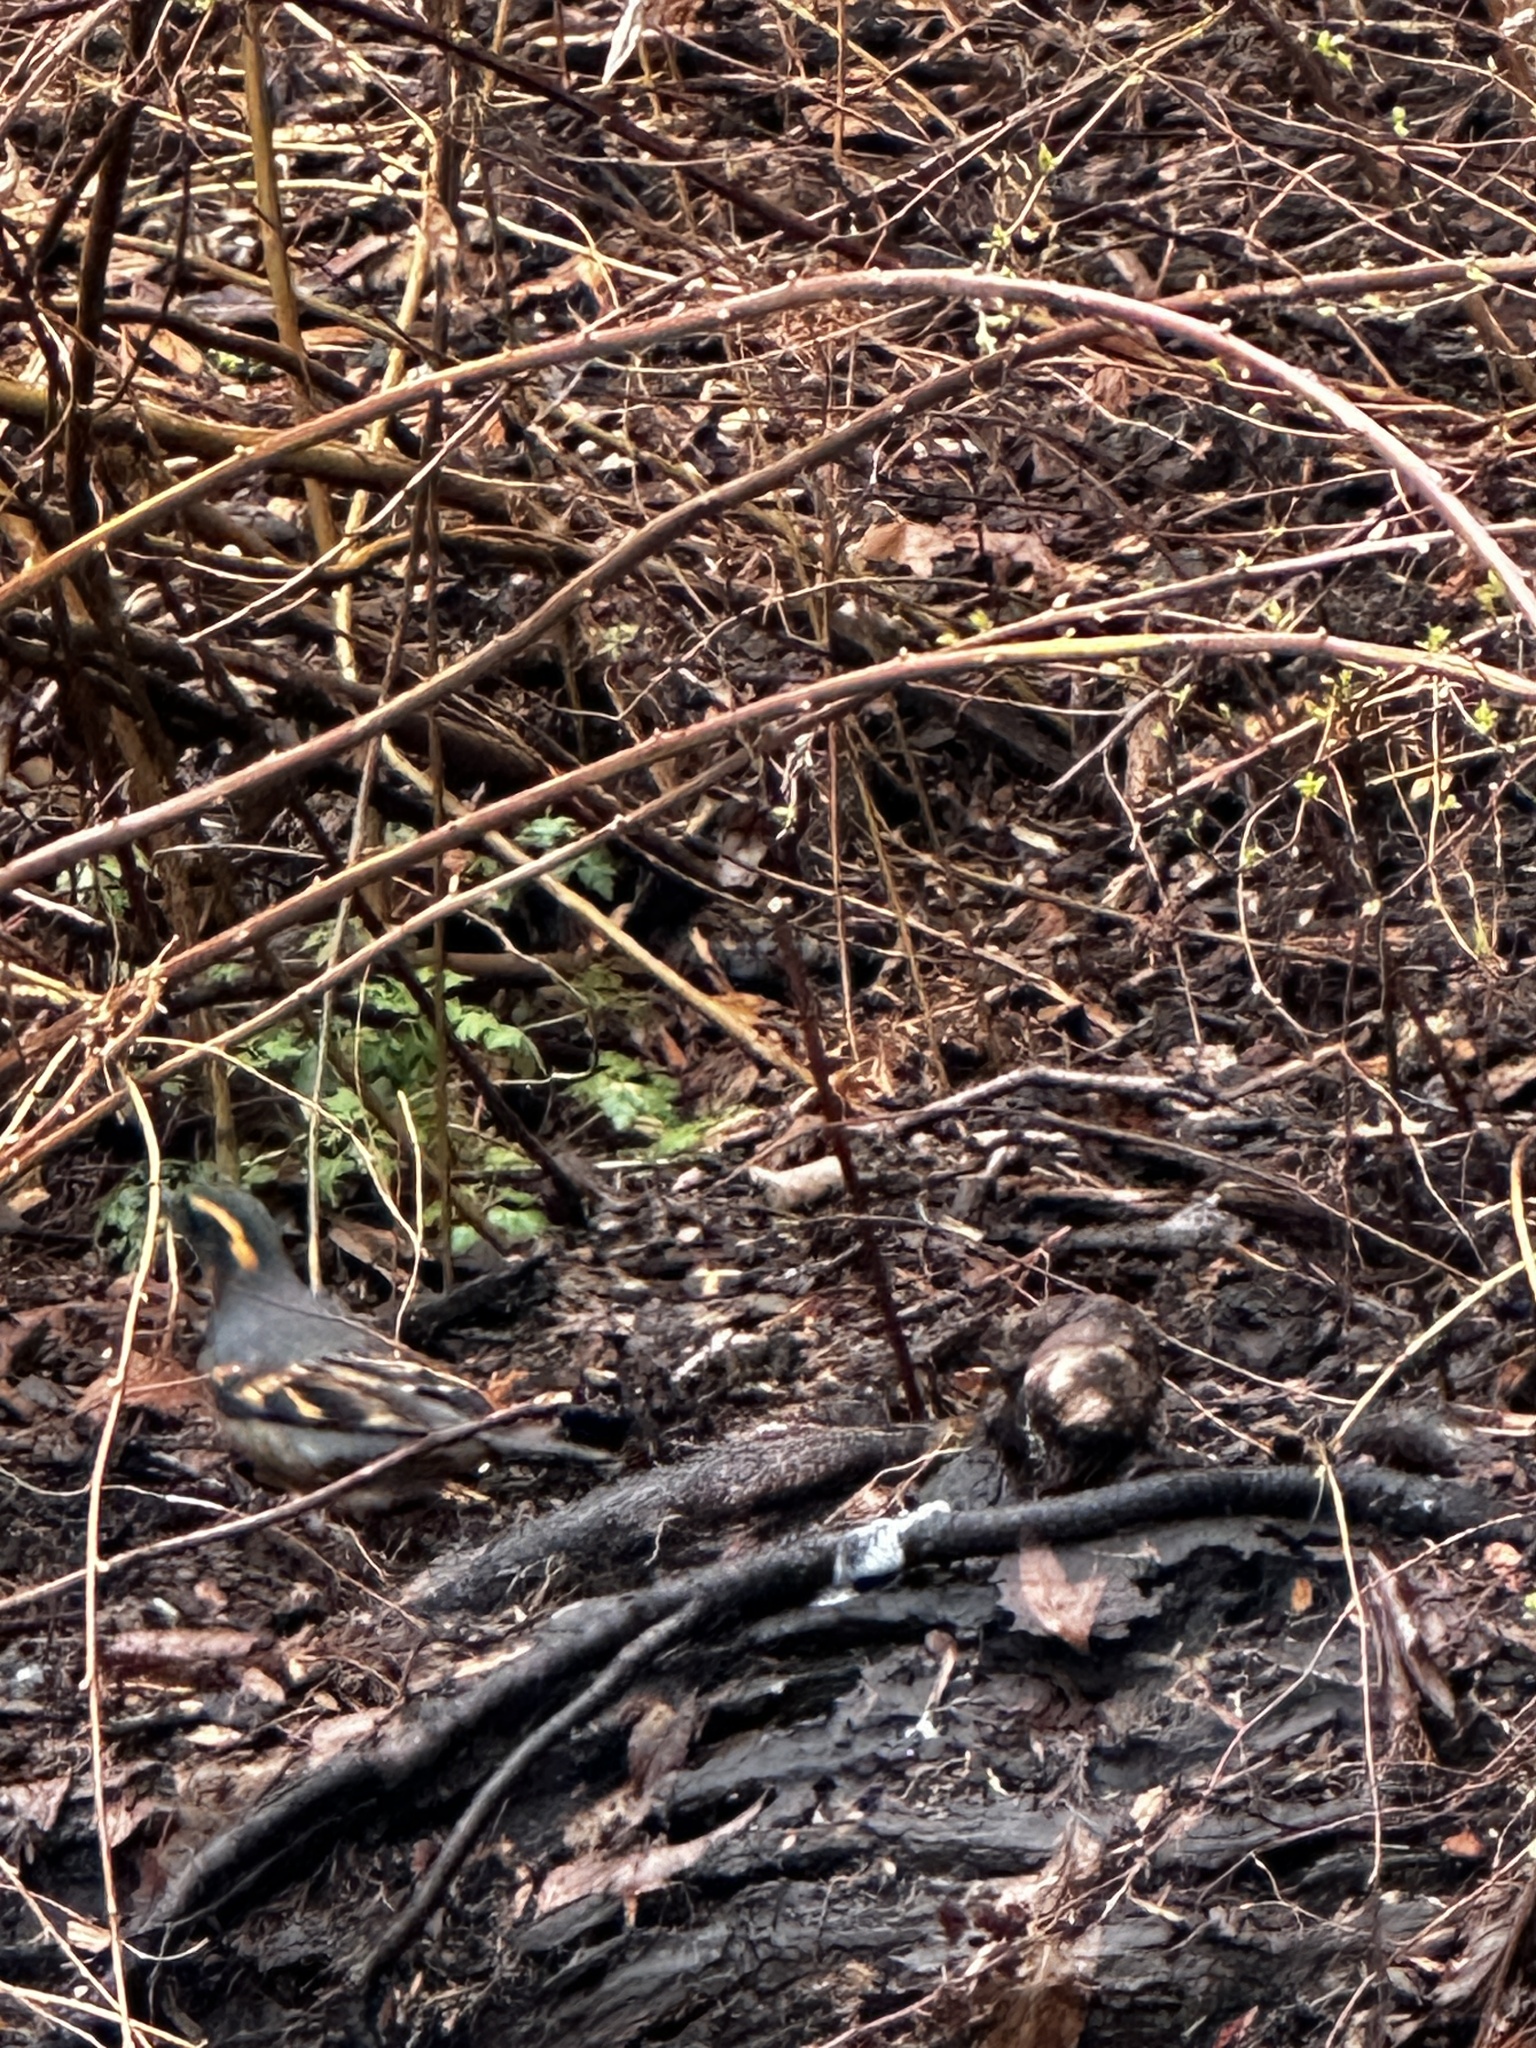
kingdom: Animalia
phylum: Chordata
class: Aves
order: Passeriformes
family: Turdidae
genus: Ixoreus
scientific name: Ixoreus naevius
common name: Varied thrush
